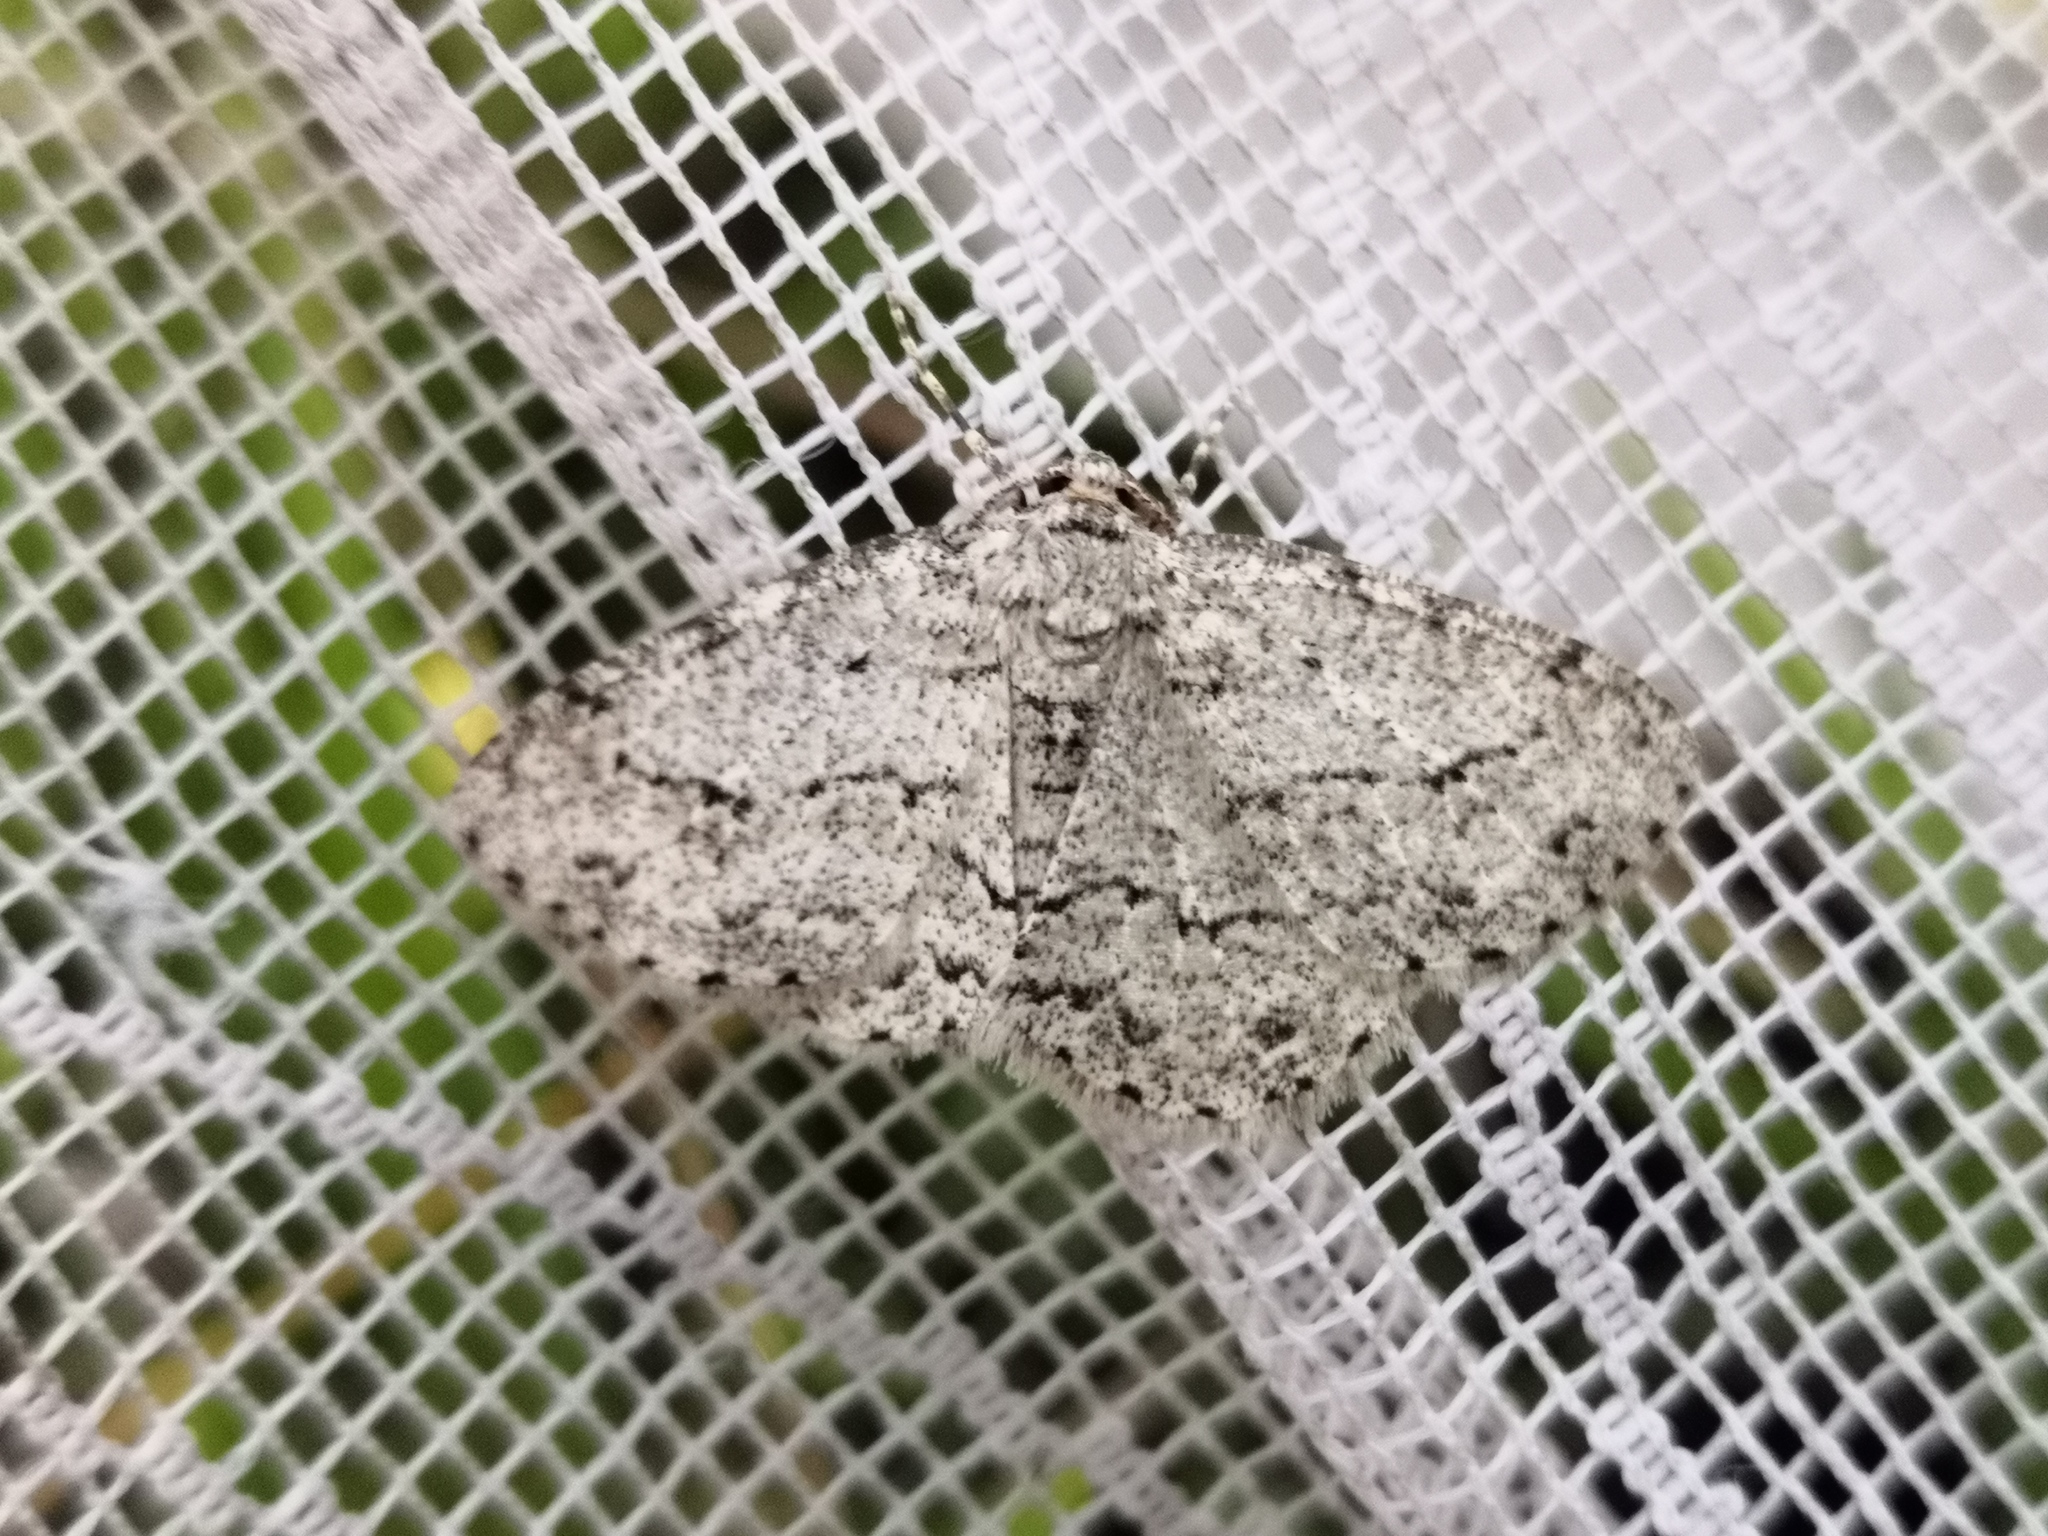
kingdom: Animalia
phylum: Arthropoda
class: Insecta
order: Lepidoptera
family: Geometridae
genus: Ectropis
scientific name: Ectropis crepuscularia
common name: Engrailed
